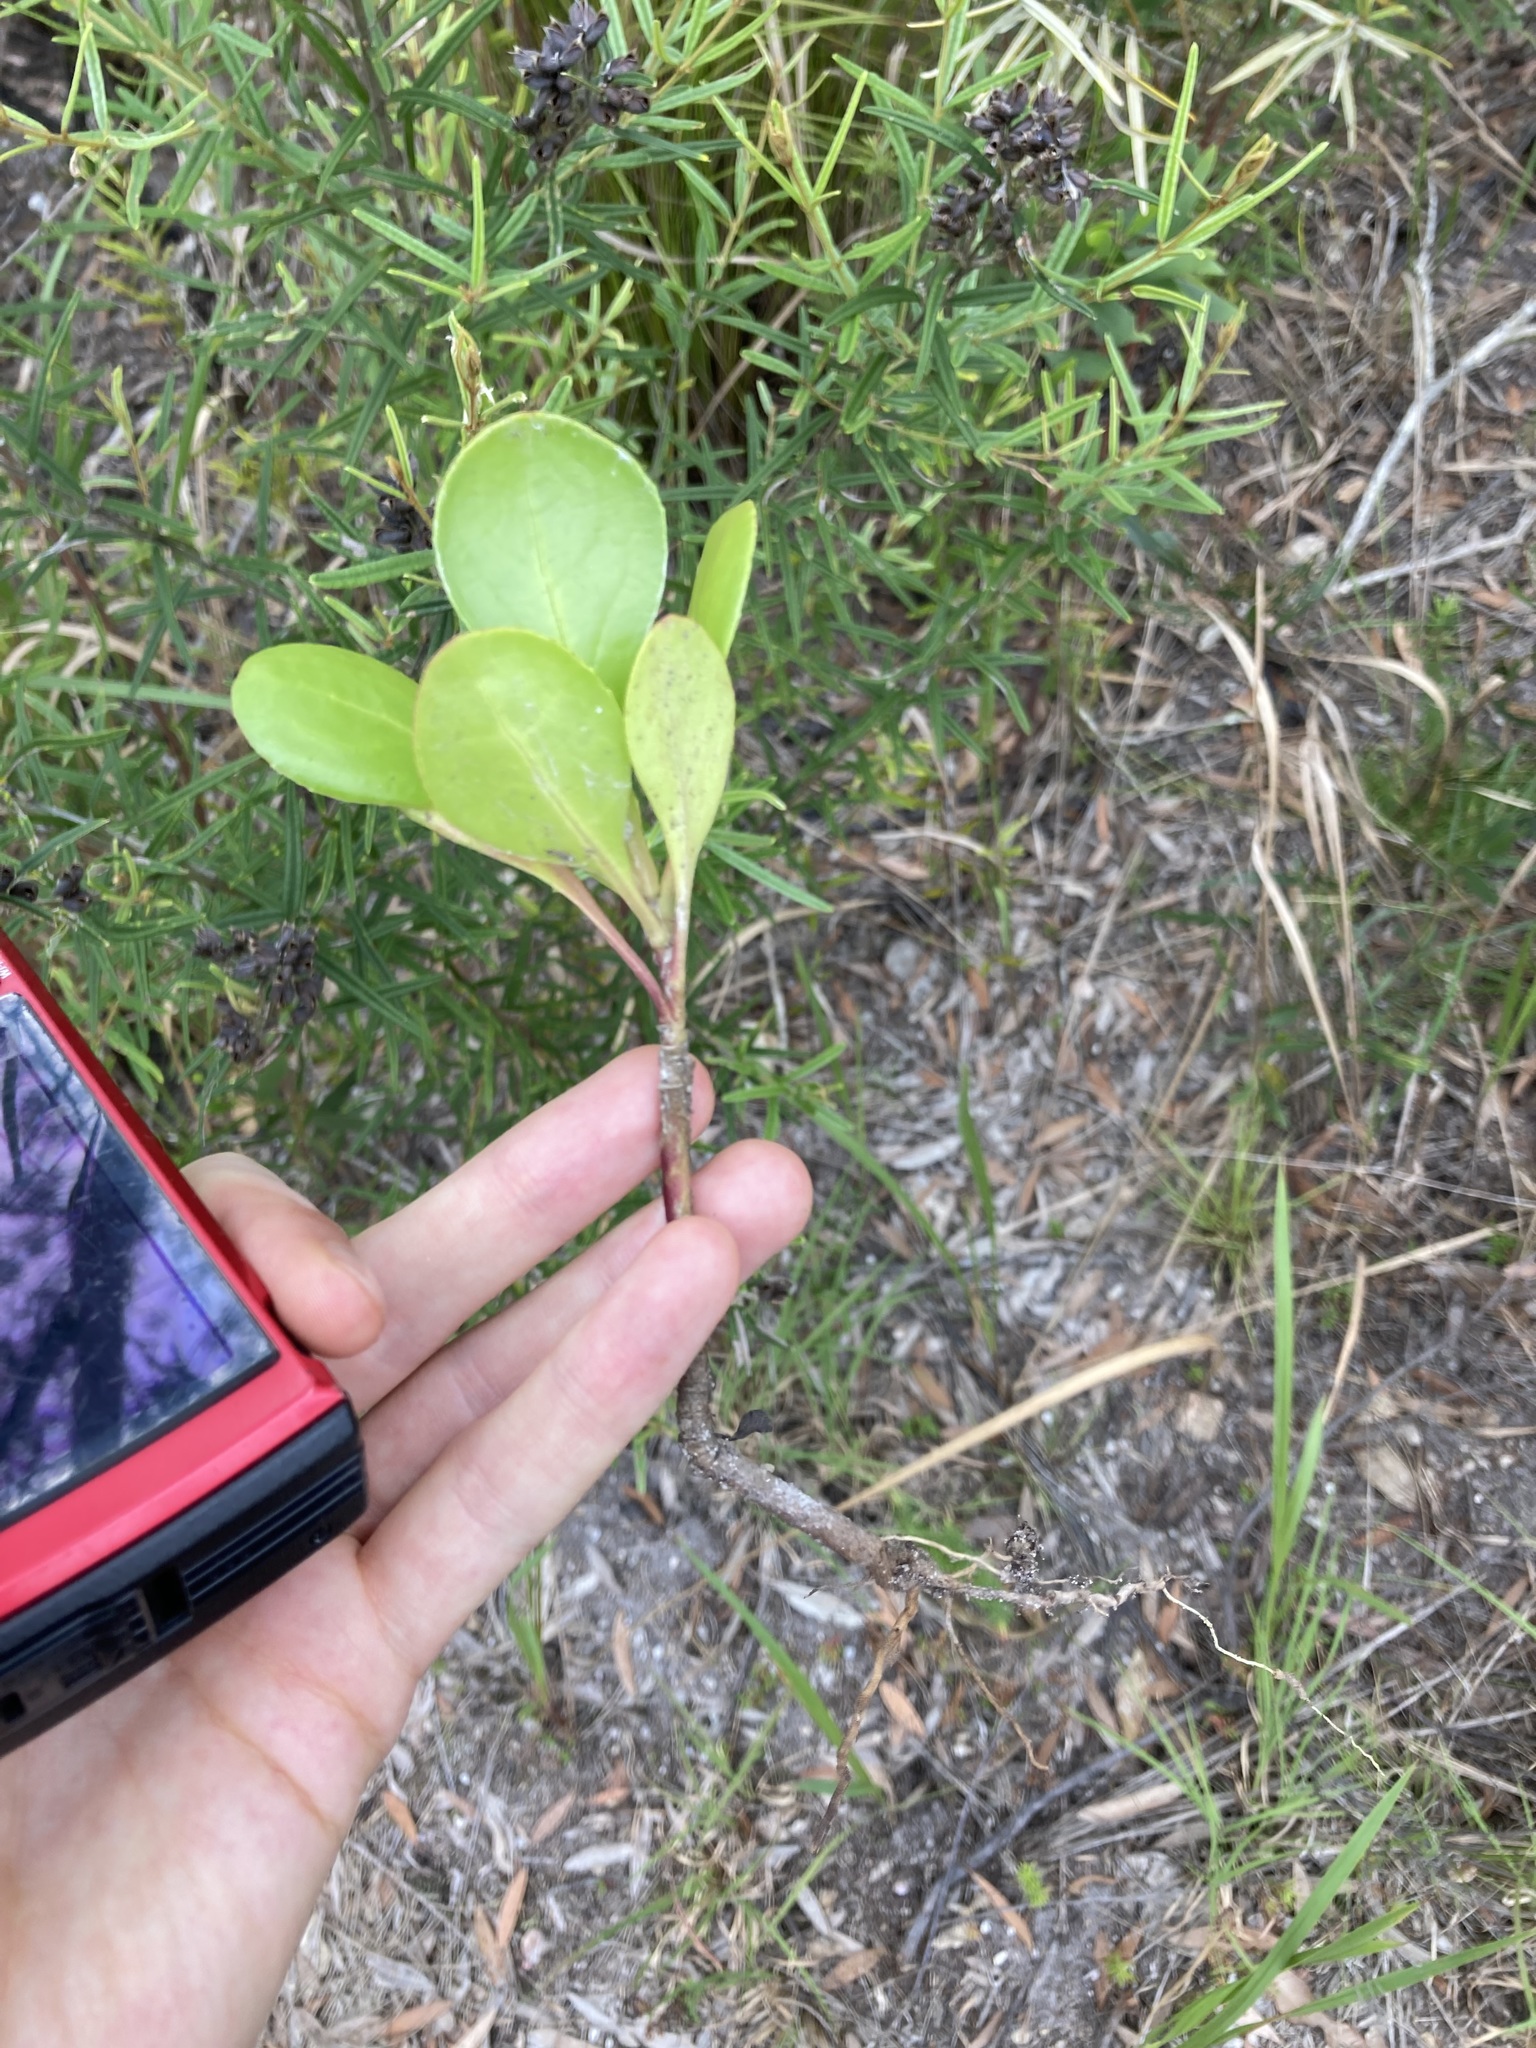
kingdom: Plantae
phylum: Tracheophyta
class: Magnoliopsida
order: Asterales
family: Asteraceae
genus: Osteospermum
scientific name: Osteospermum moniliferum
